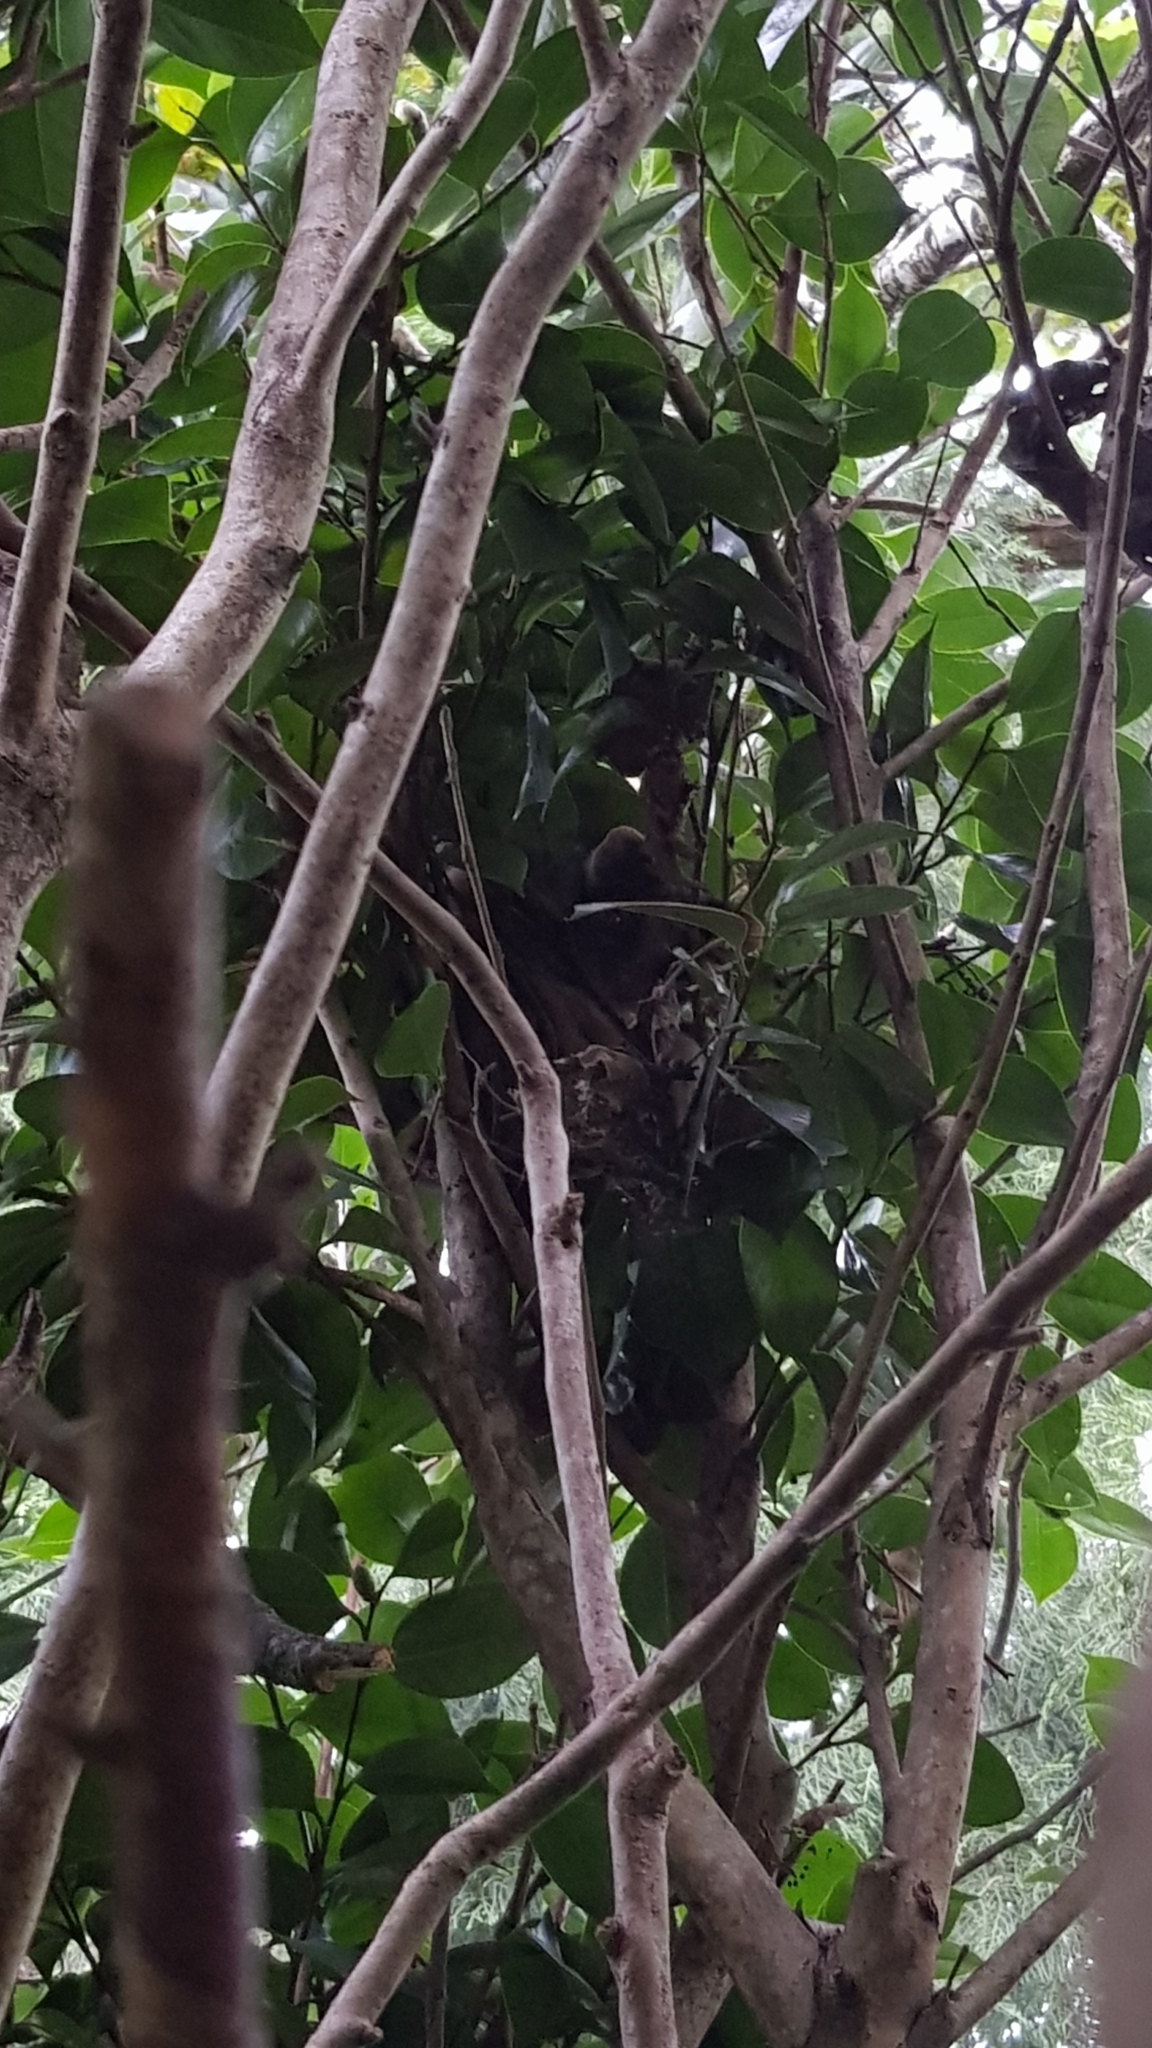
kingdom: Animalia
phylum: Chordata
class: Mammalia
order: Diprotodontia
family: Pseudocheiridae
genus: Pseudocheirus
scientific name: Pseudocheirus peregrinus
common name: Common ringtail possum
